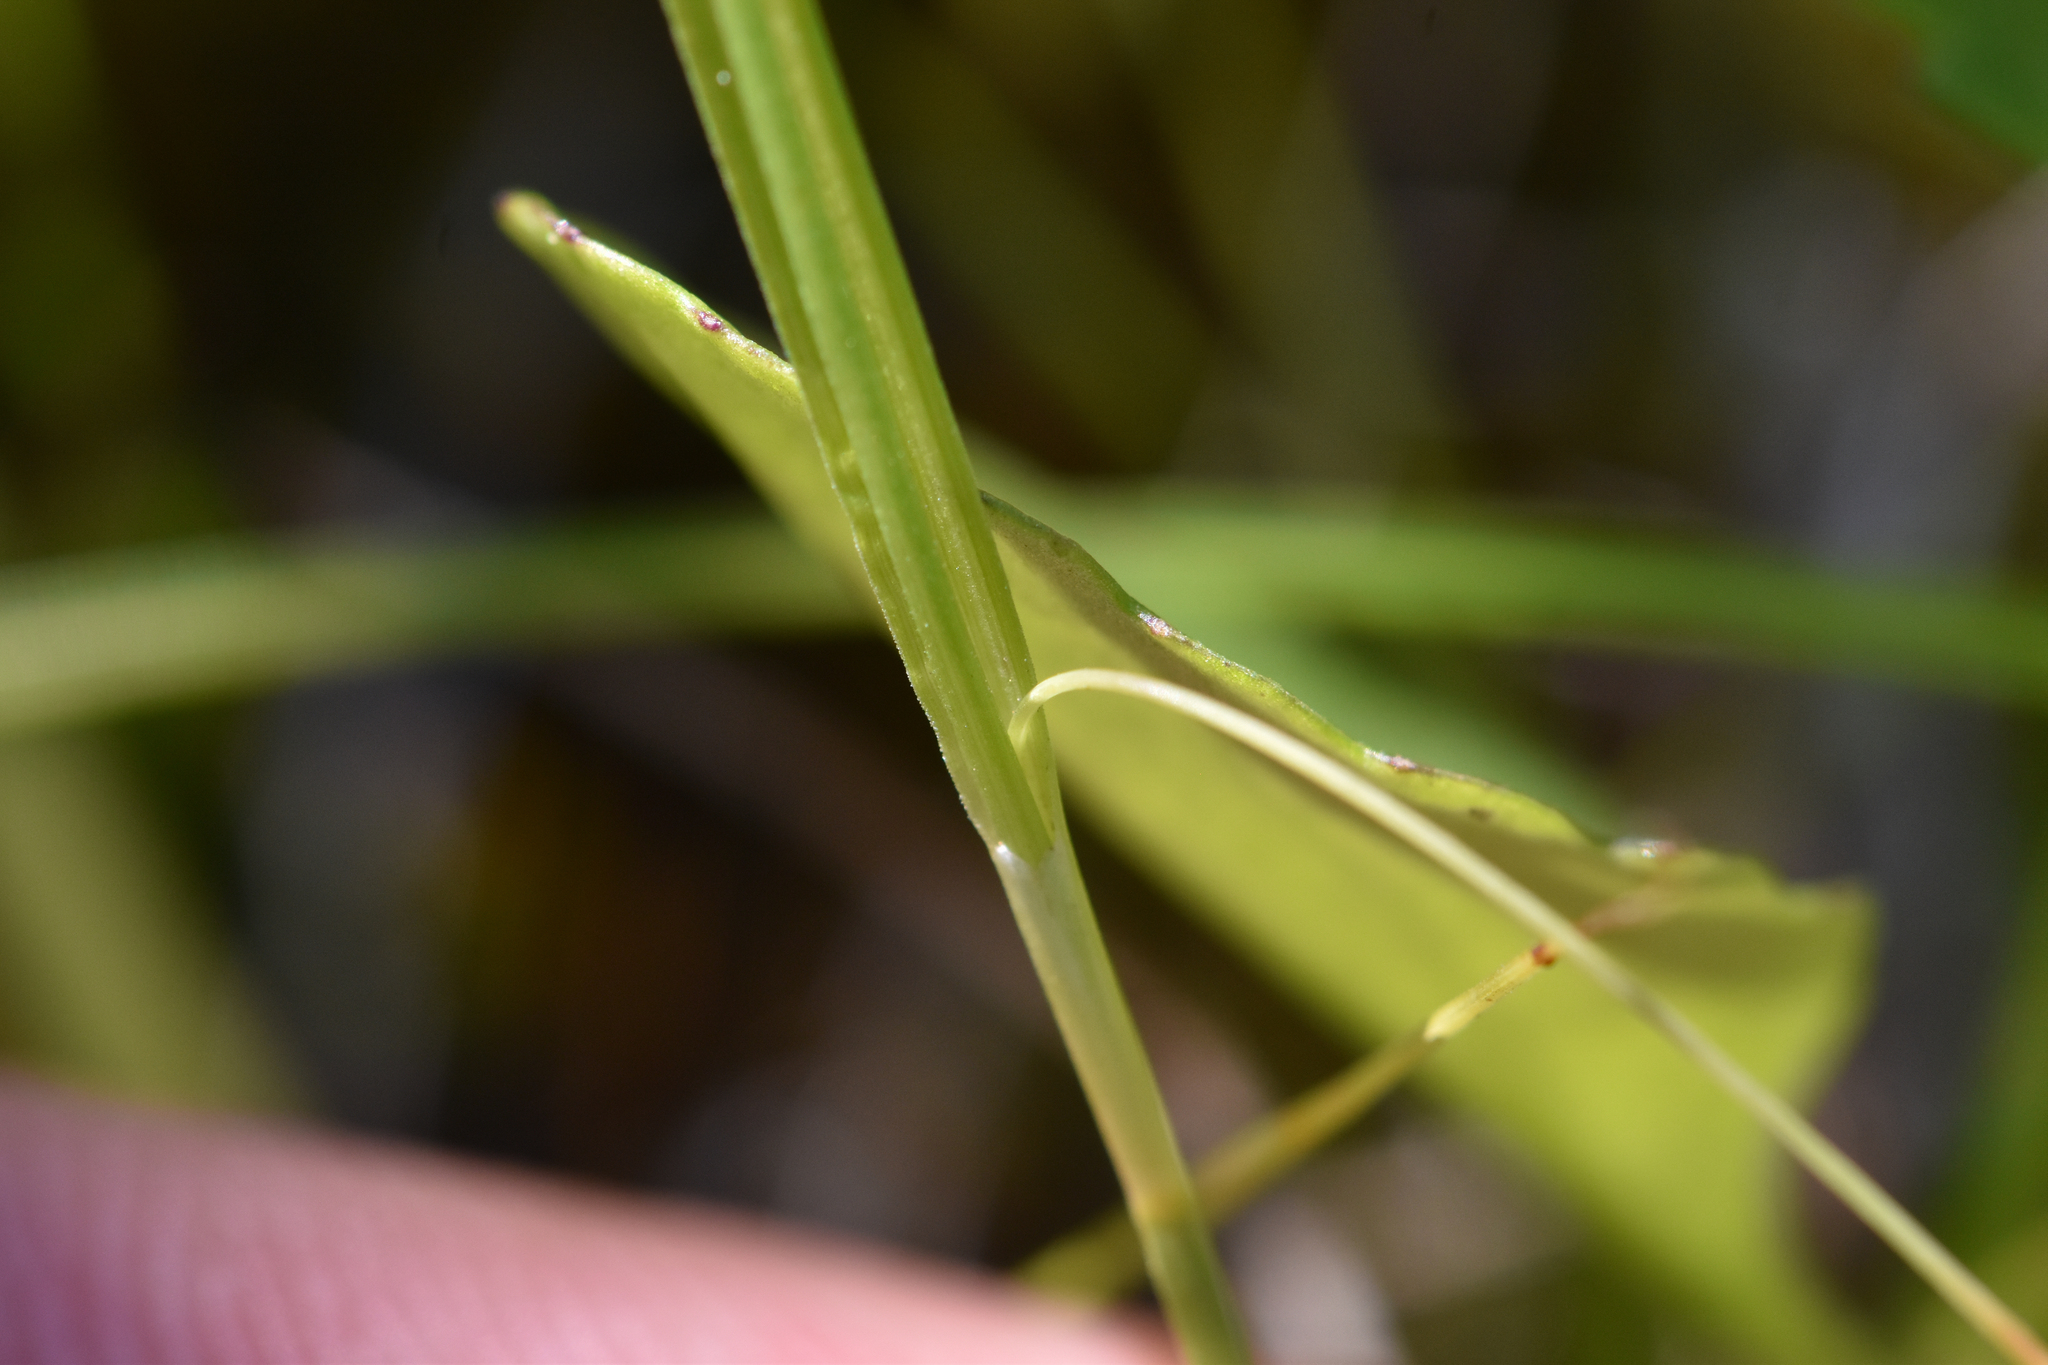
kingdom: Plantae
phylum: Tracheophyta
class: Liliopsida
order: Poales
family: Cyperaceae
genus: Carex
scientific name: Carex aurea
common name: Golden sedge
